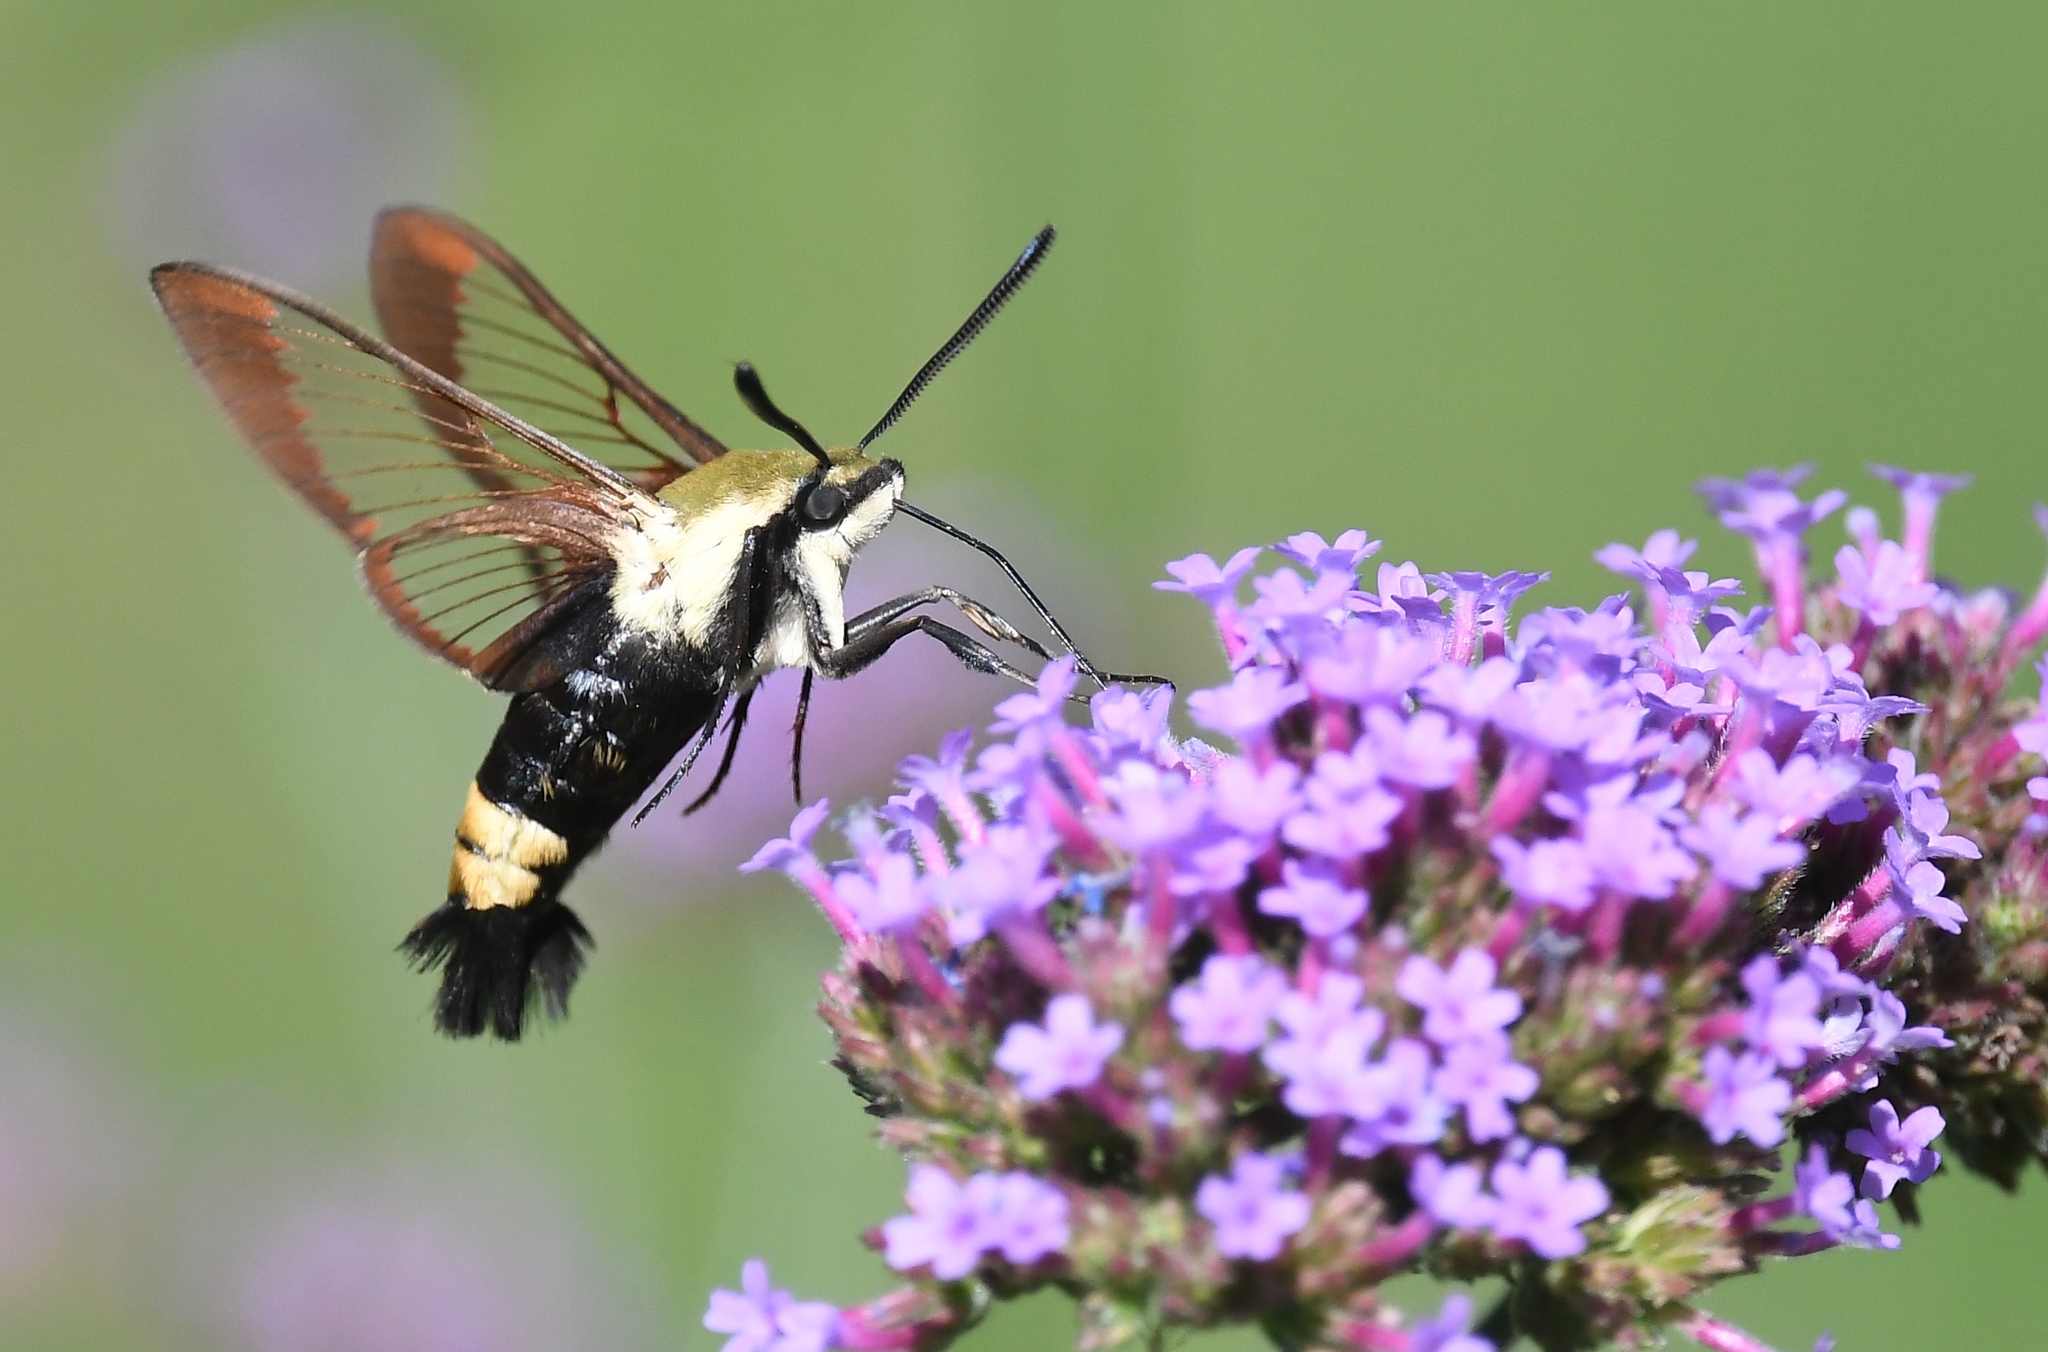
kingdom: Animalia
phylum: Arthropoda
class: Insecta
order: Lepidoptera
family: Sphingidae
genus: Hemaris
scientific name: Hemaris diffinis
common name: Bumblebee moth
